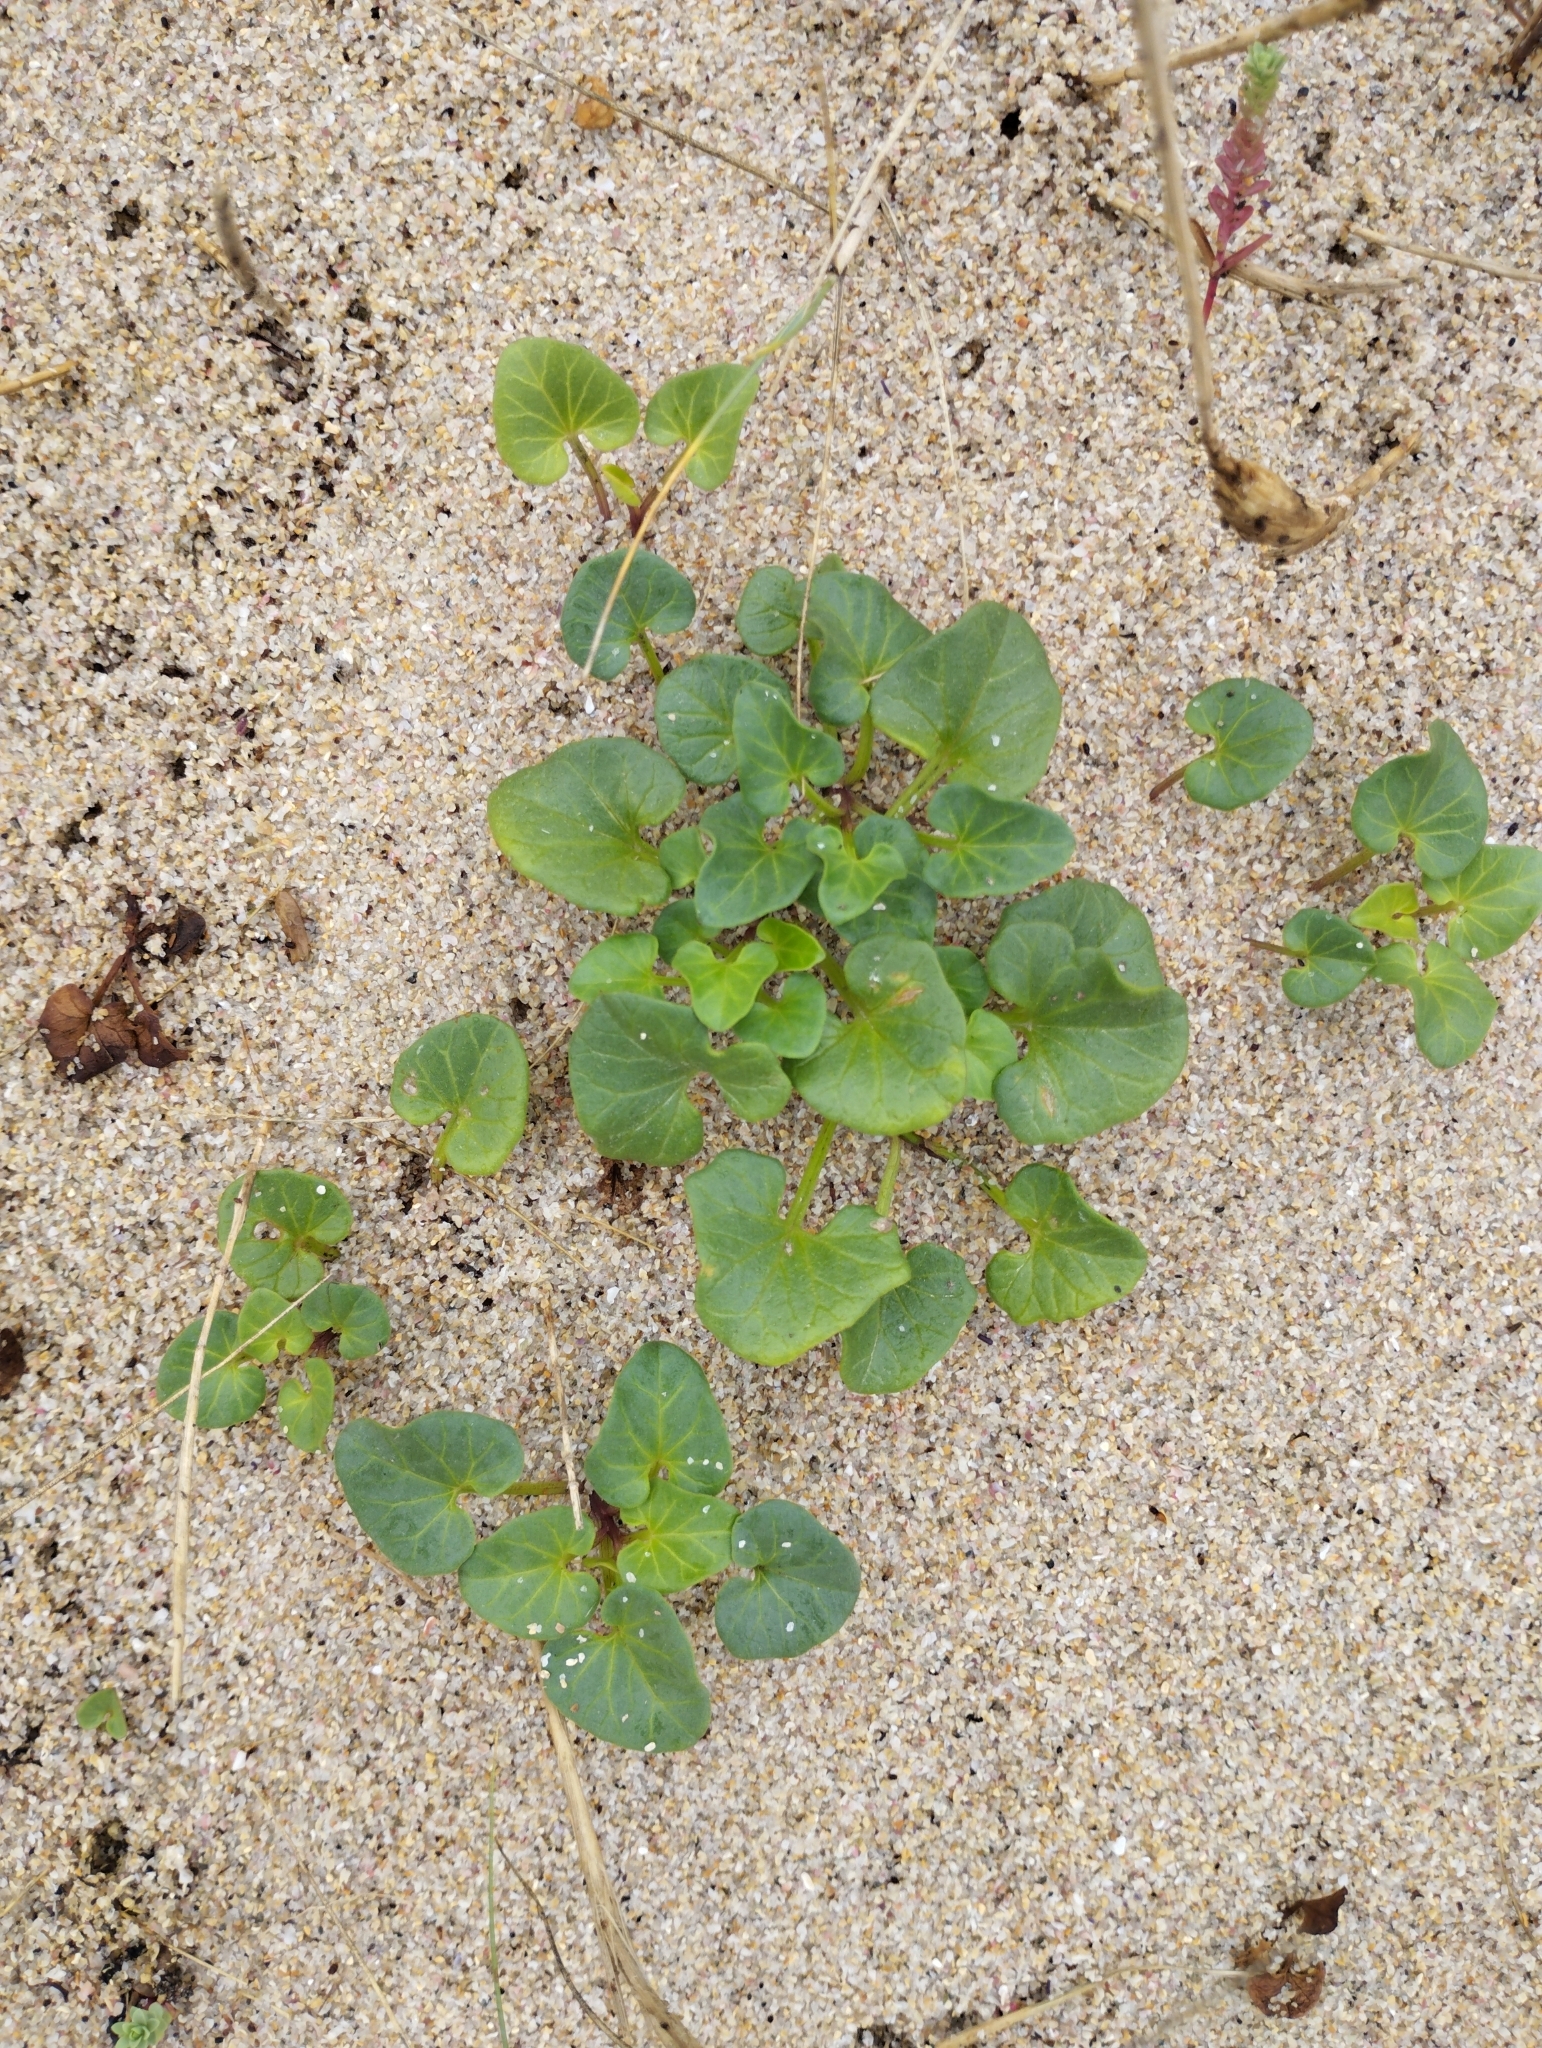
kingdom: Plantae
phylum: Tracheophyta
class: Magnoliopsida
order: Solanales
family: Convolvulaceae
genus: Calystegia
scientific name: Calystegia soldanella
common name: Sea bindweed
